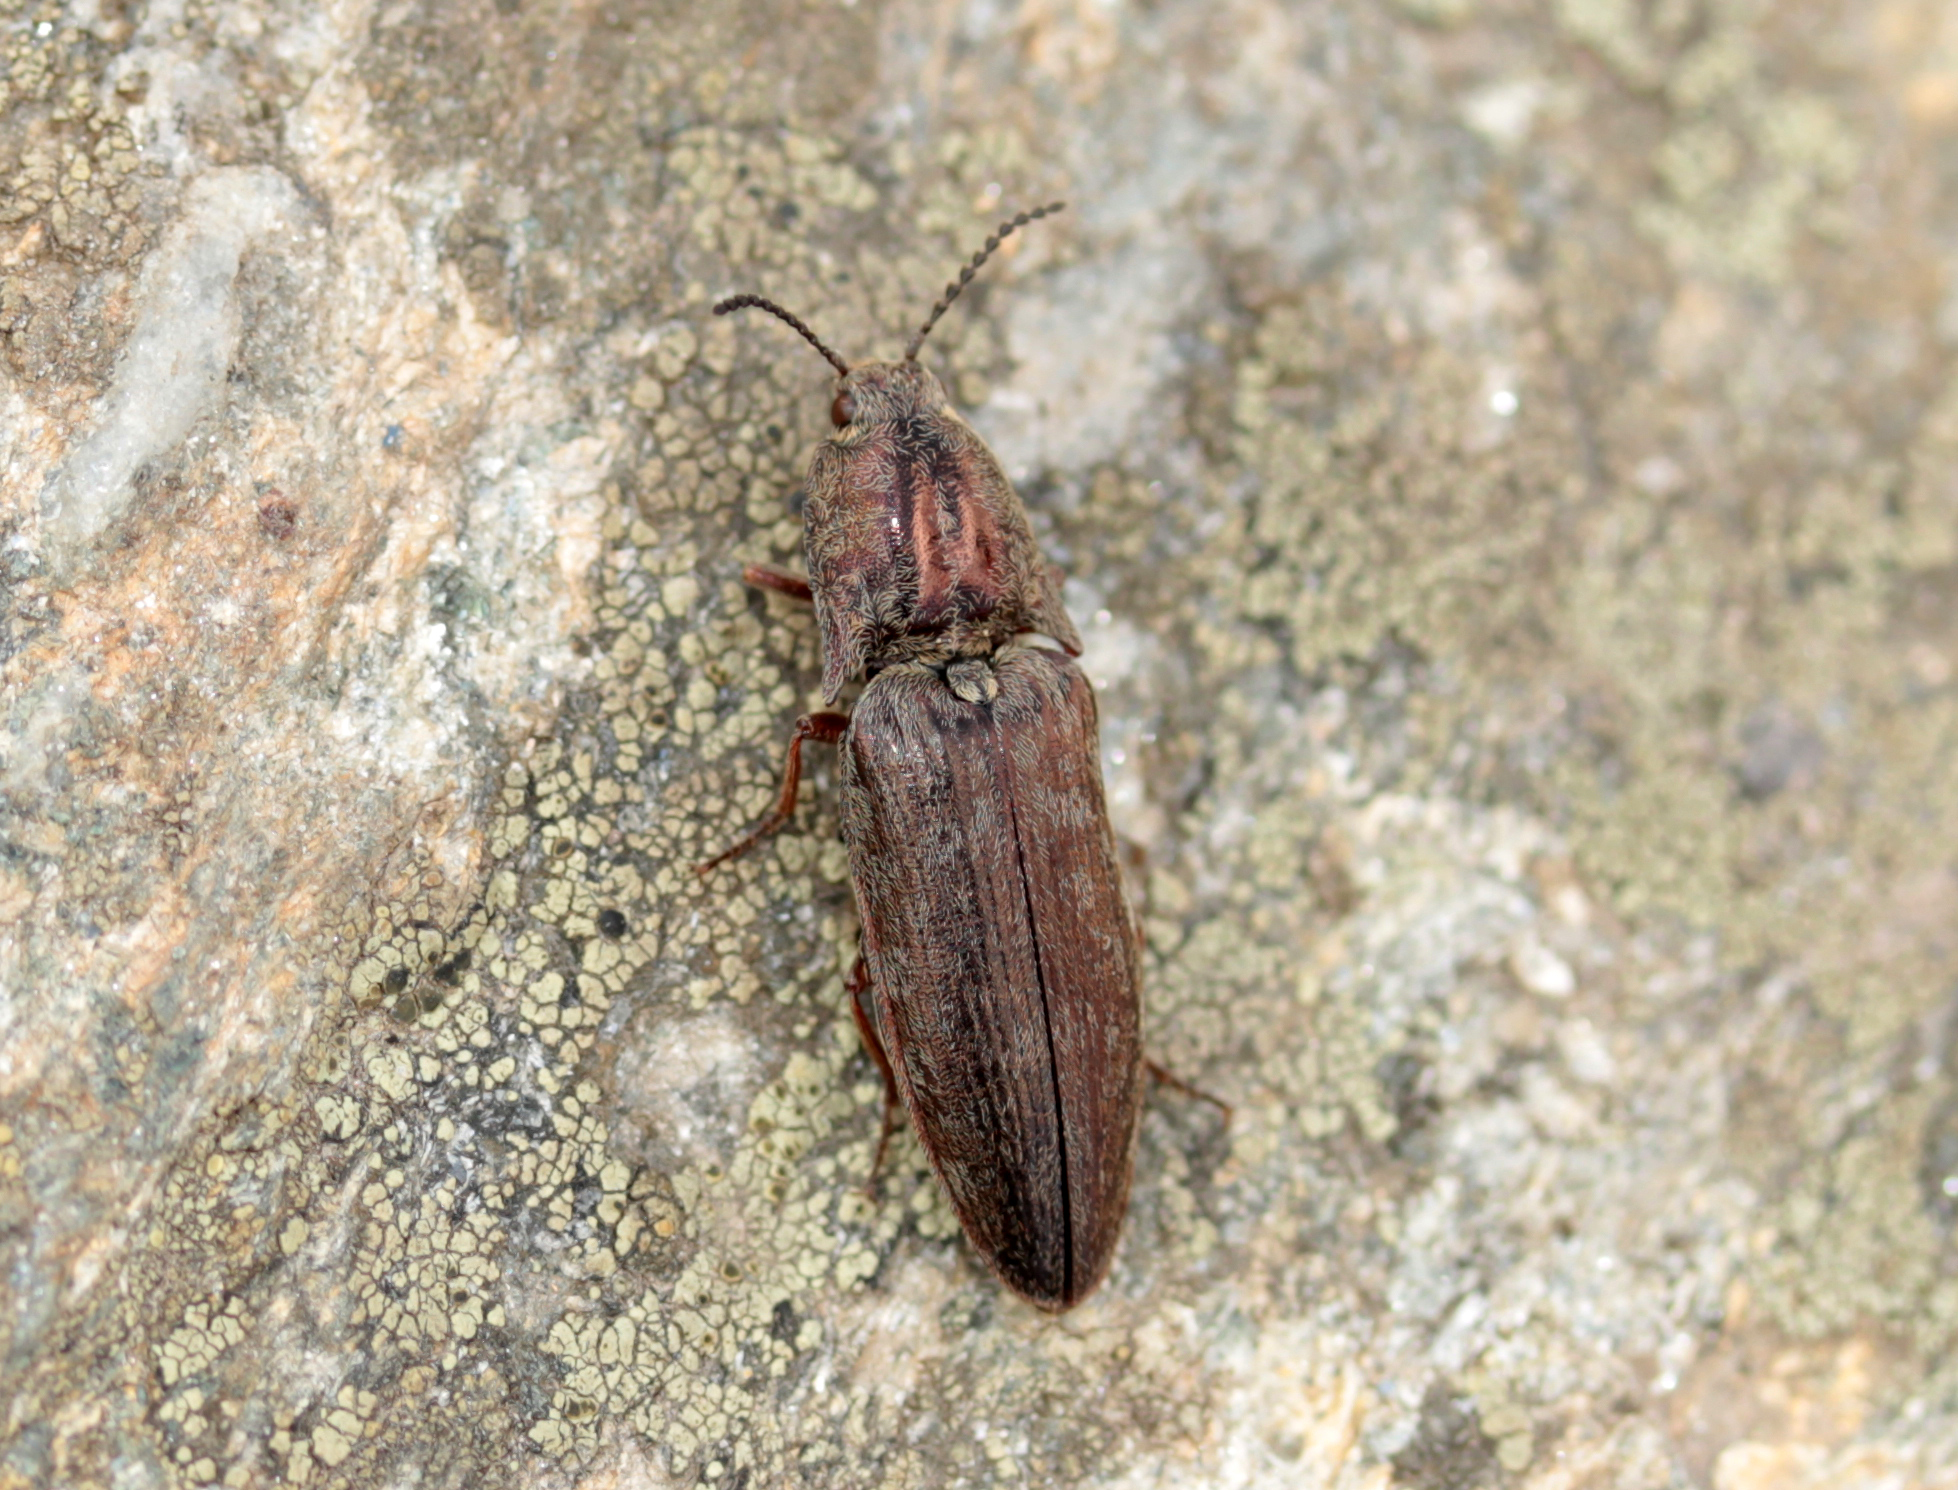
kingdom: Animalia
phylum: Arthropoda
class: Insecta
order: Coleoptera
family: Elateridae
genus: Actenicerus
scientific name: Actenicerus cuprascens
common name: Marsh click beetle
